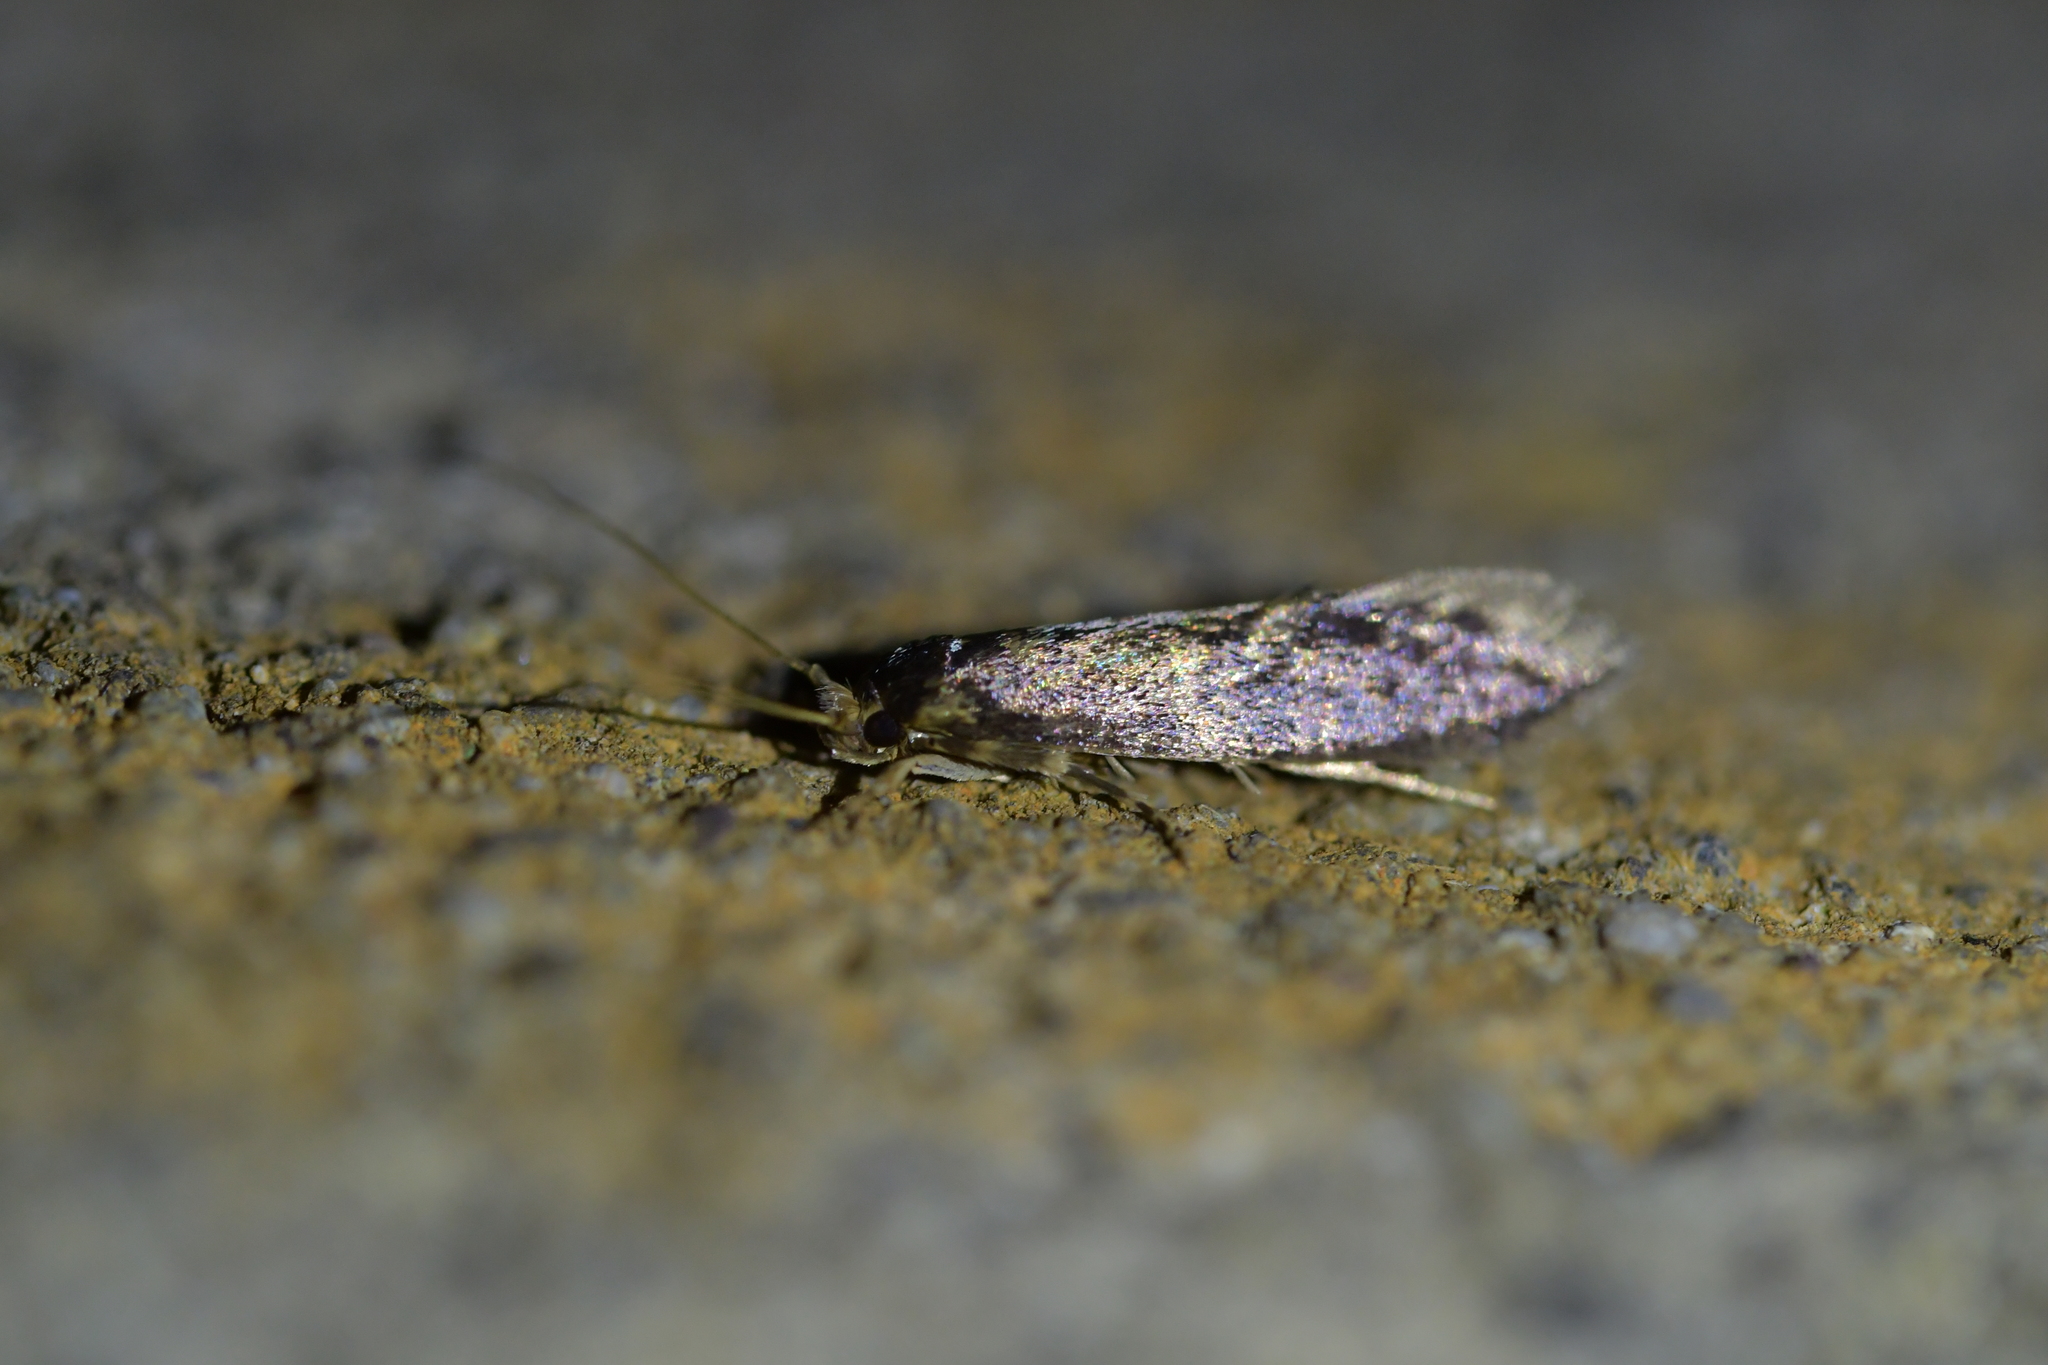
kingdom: Animalia
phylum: Arthropoda
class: Insecta
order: Lepidoptera
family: Tineidae
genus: Opogona
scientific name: Opogona omoscopa
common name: Moth
